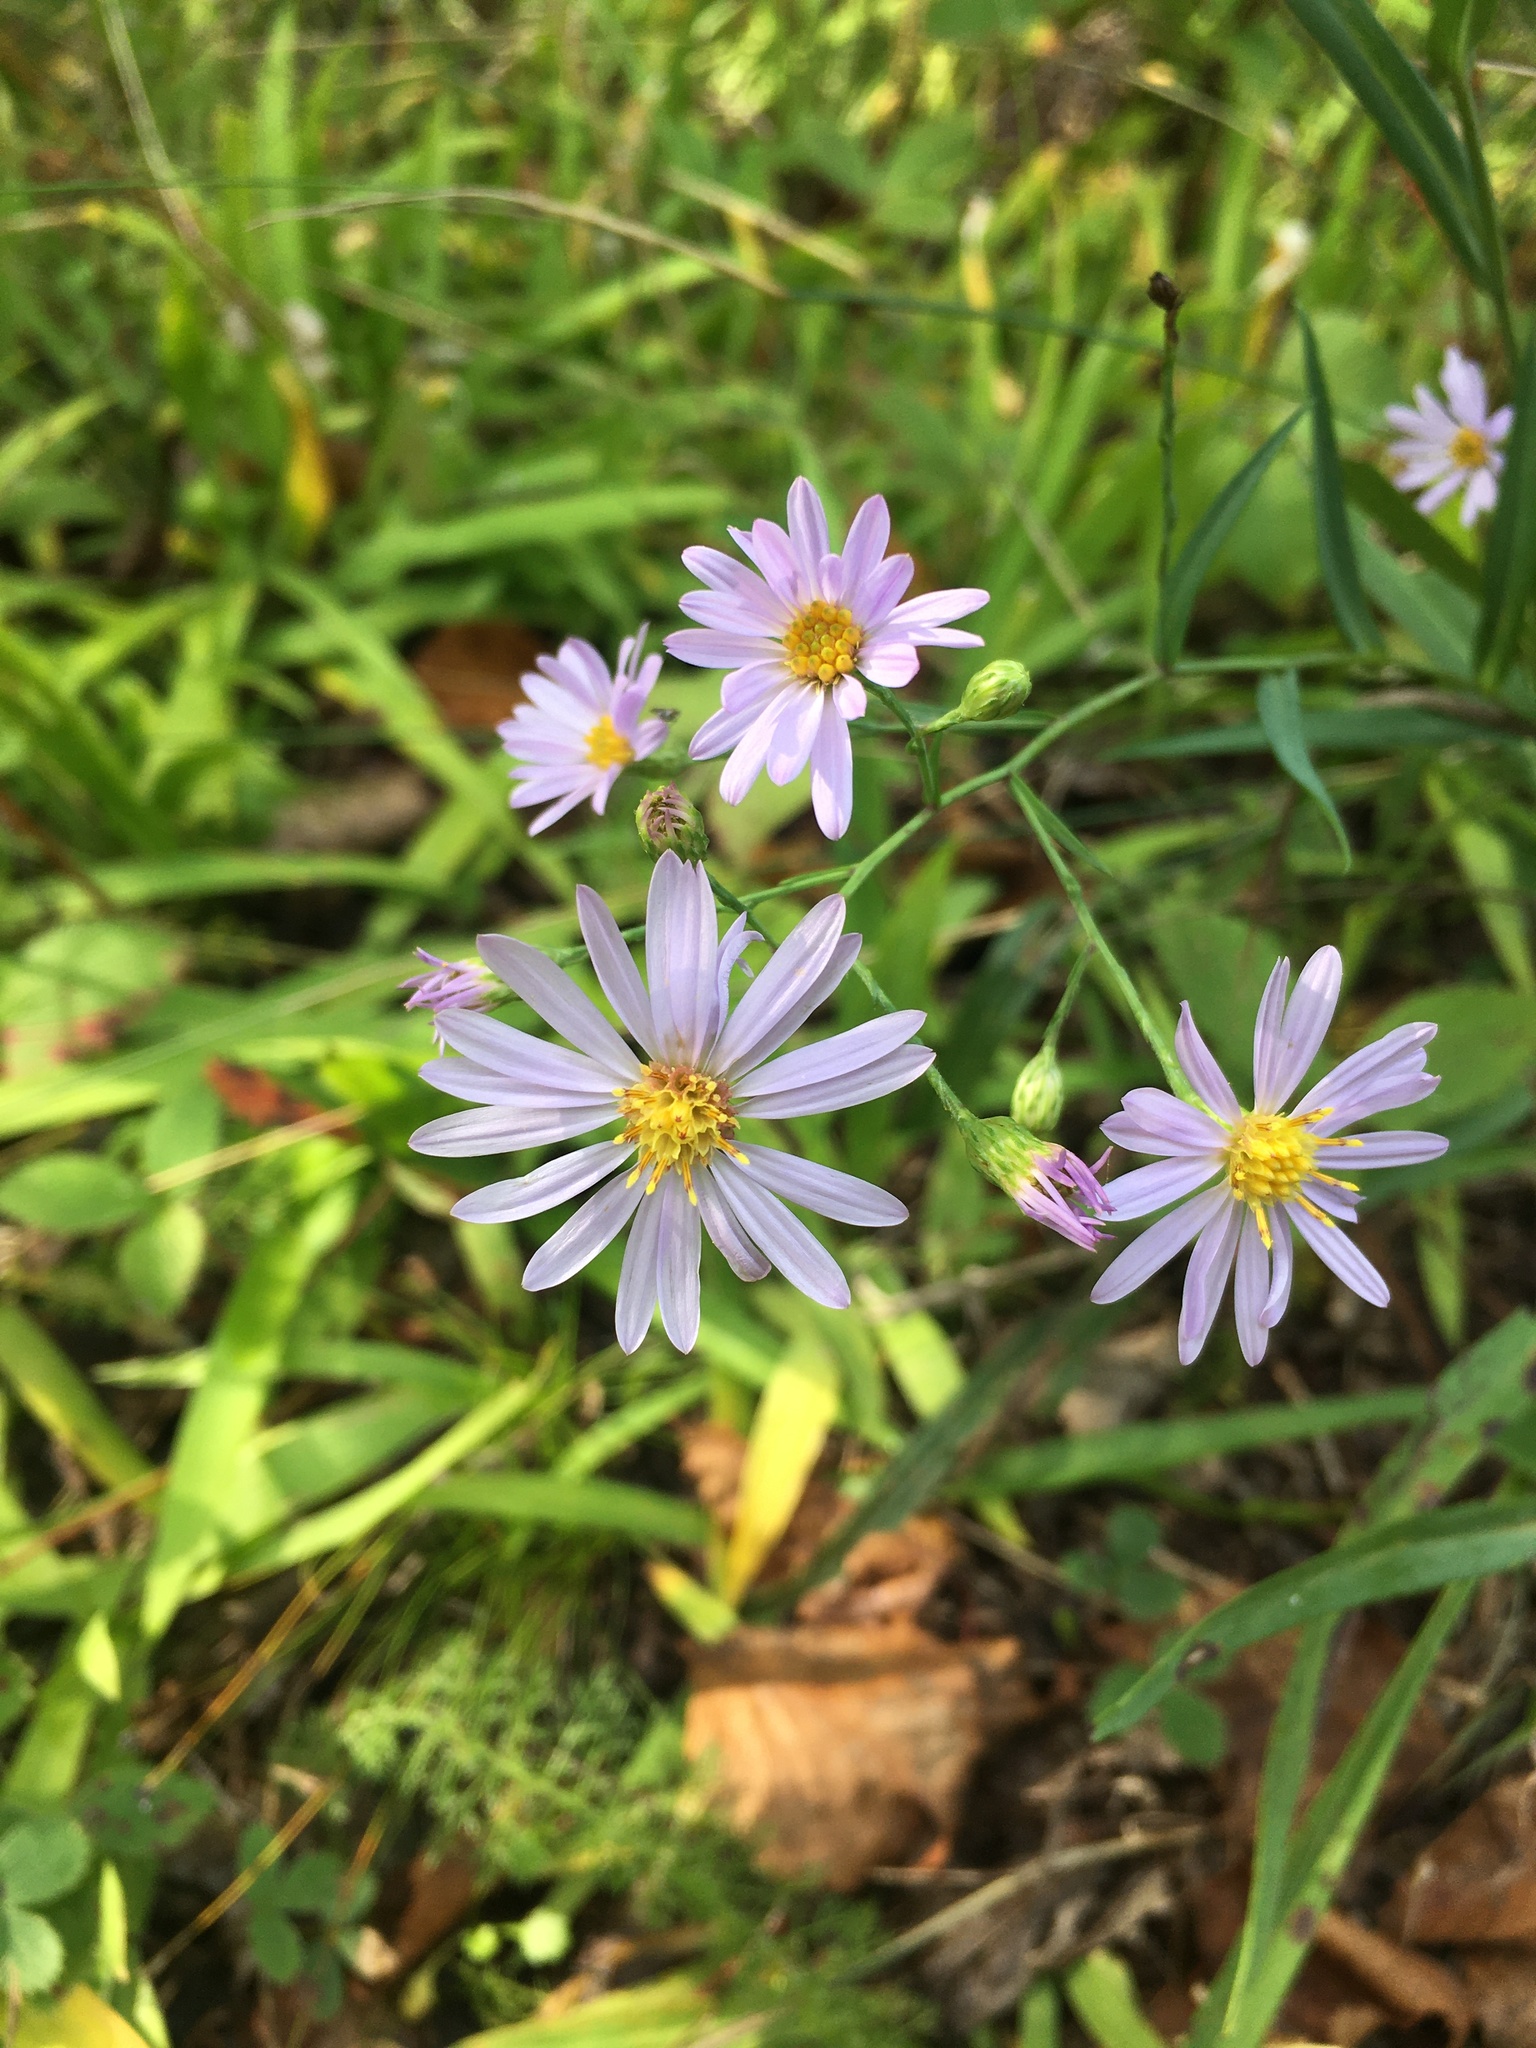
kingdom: Plantae
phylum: Tracheophyta
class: Magnoliopsida
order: Asterales
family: Asteraceae
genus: Symphyotrichum
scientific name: Symphyotrichum laeve
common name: Glaucous aster
